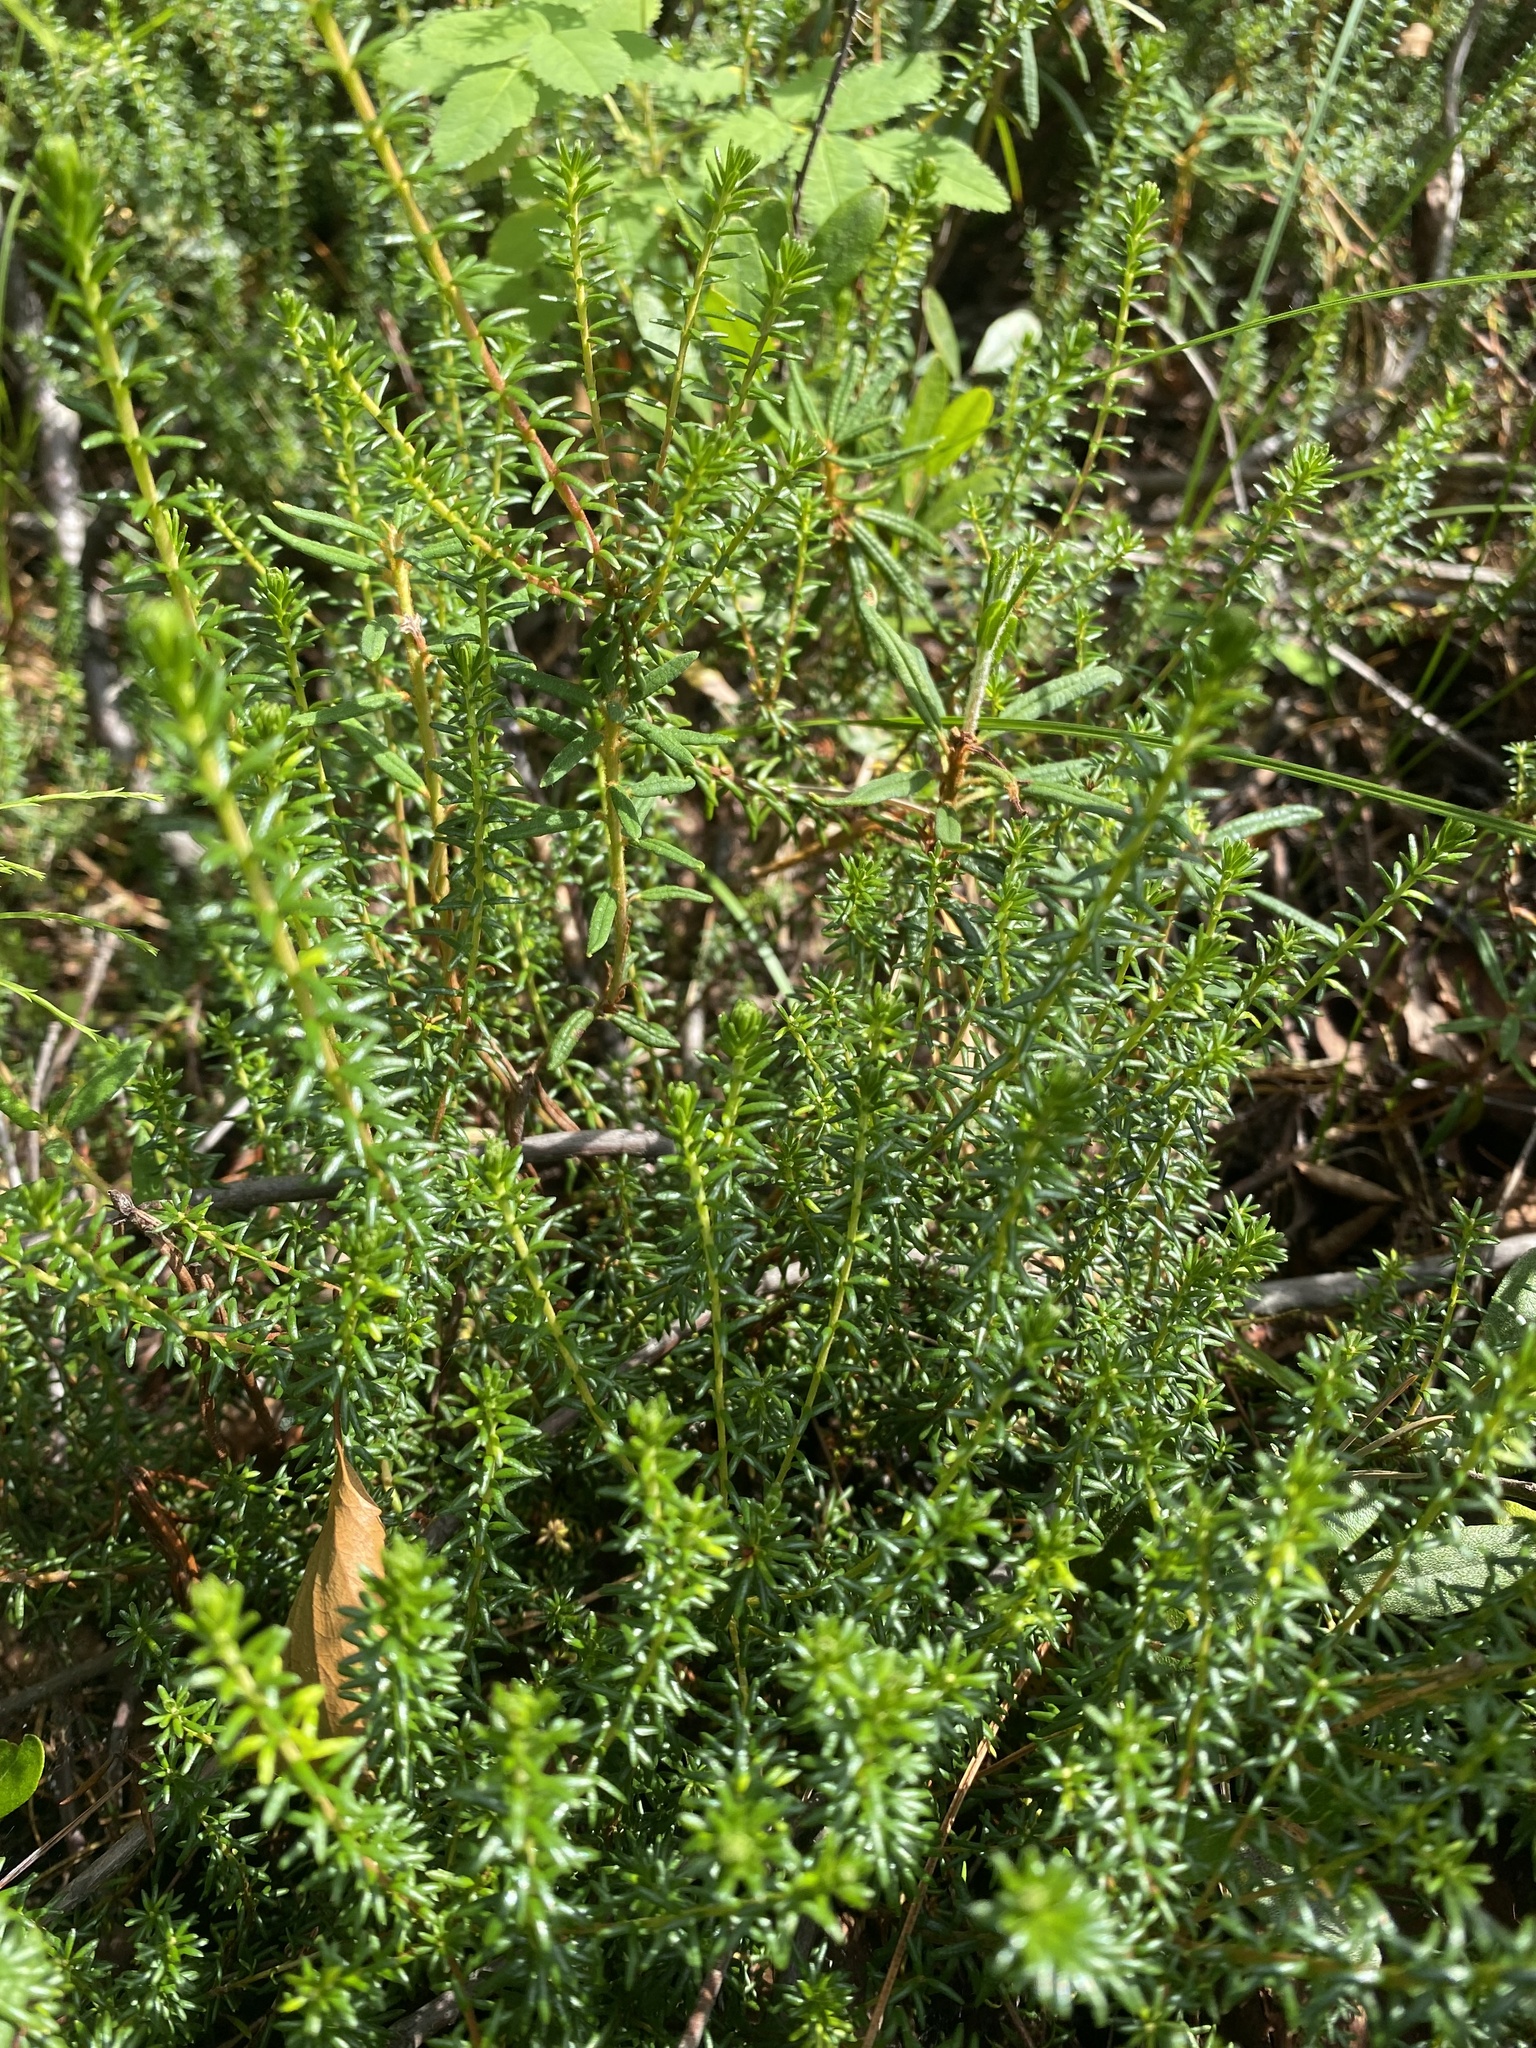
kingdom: Plantae
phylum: Tracheophyta
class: Magnoliopsida
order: Ericales
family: Ericaceae
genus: Empetrum
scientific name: Empetrum nigrum
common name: Black crowberry
